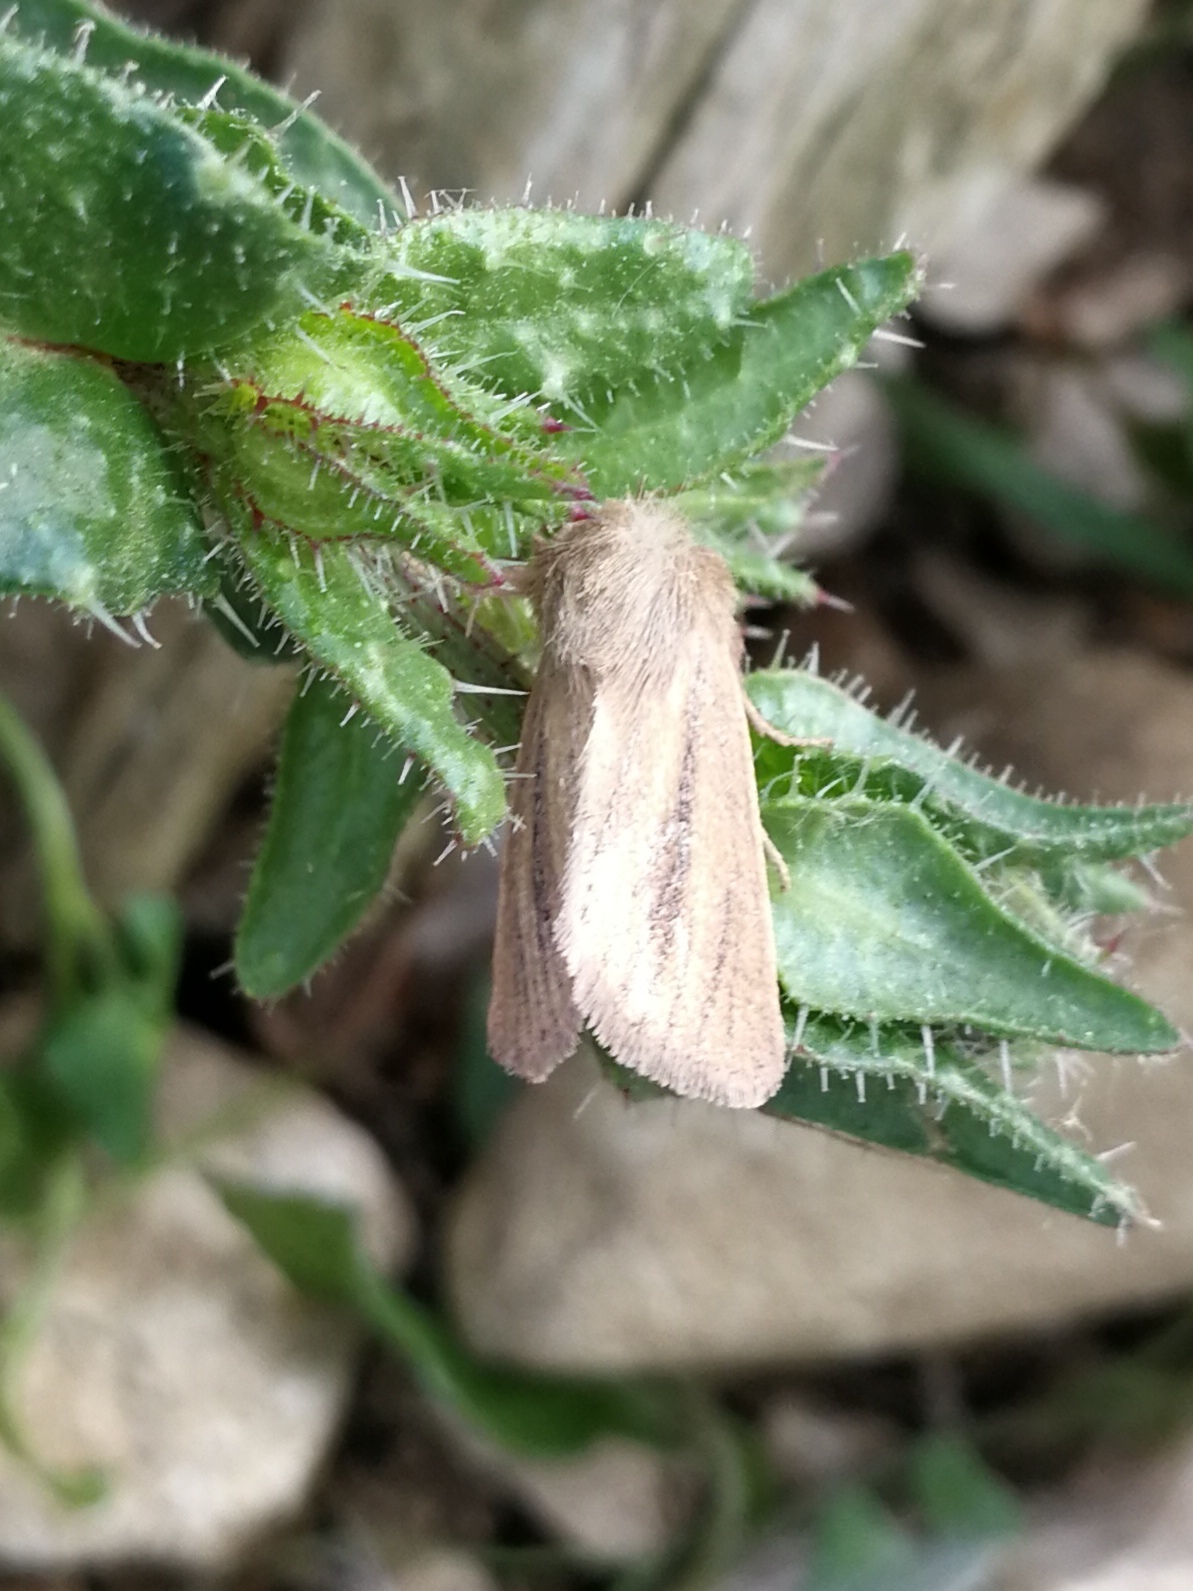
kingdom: Animalia
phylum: Arthropoda
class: Insecta
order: Lepidoptera
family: Noctuidae
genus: Denticucullus
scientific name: Denticucullus pygmina
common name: Small wainscot
